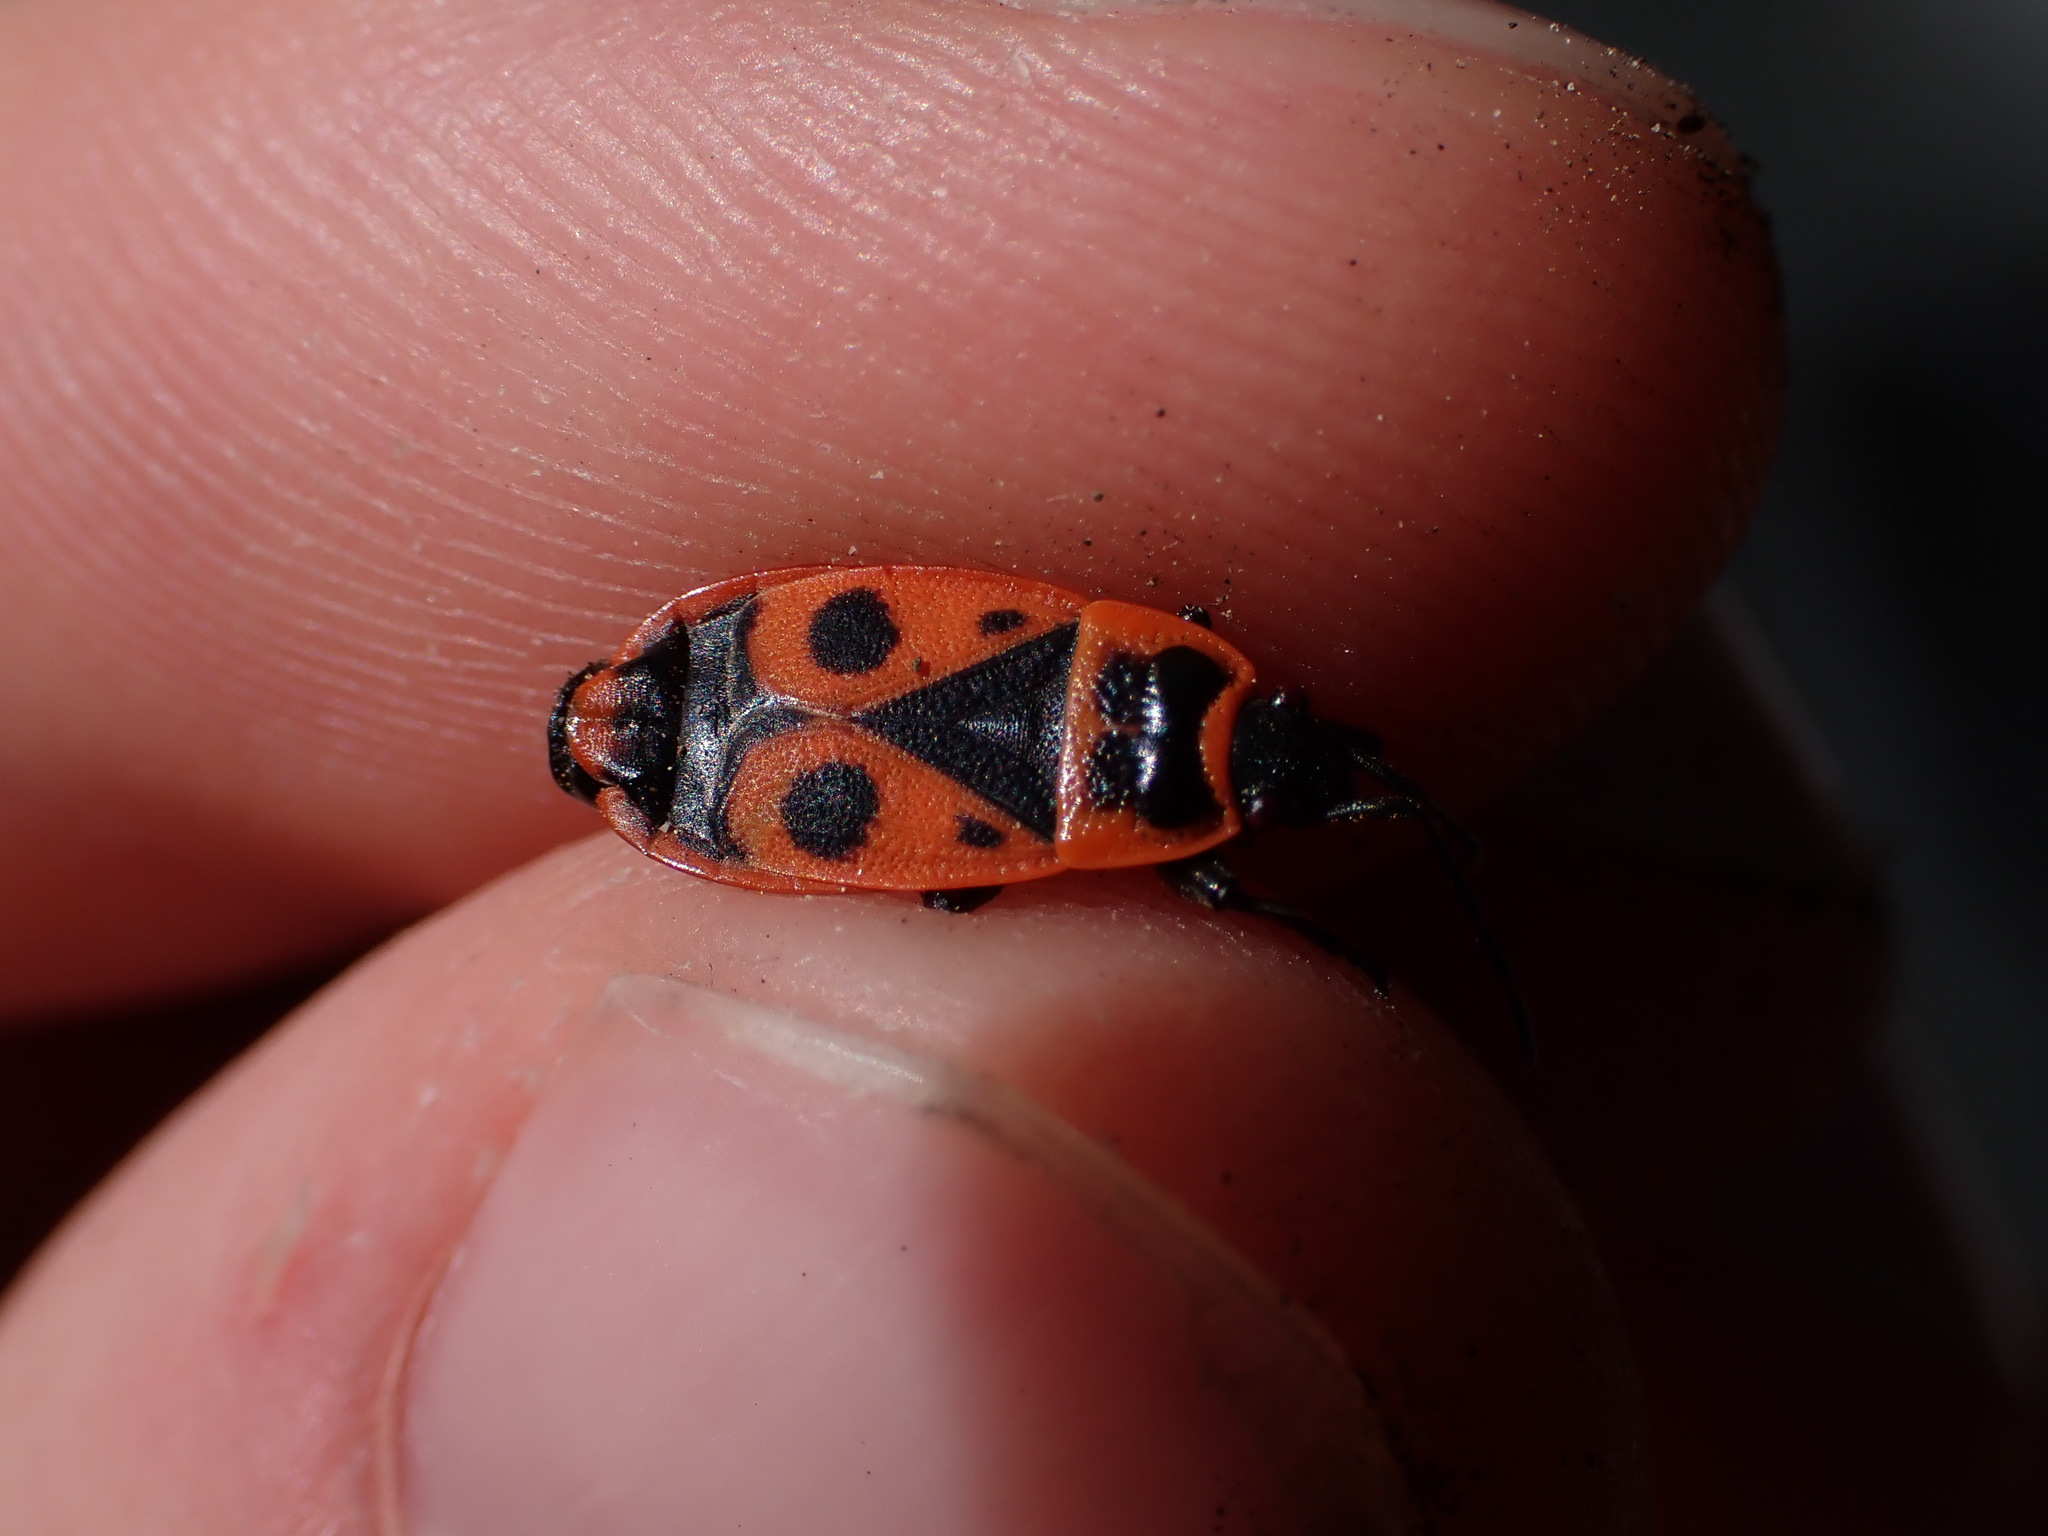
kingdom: Animalia
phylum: Arthropoda
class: Insecta
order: Hemiptera
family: Pyrrhocoridae
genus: Pyrrhocoris
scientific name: Pyrrhocoris apterus
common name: Firebug
